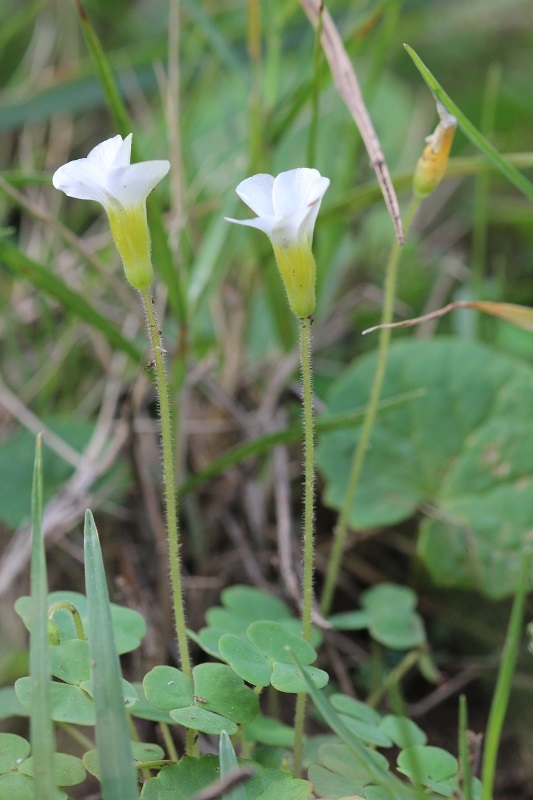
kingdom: Plantae
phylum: Tracheophyta
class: Magnoliopsida
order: Oxalidales
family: Oxalidaceae
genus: Oxalis
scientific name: Oxalis punctata
